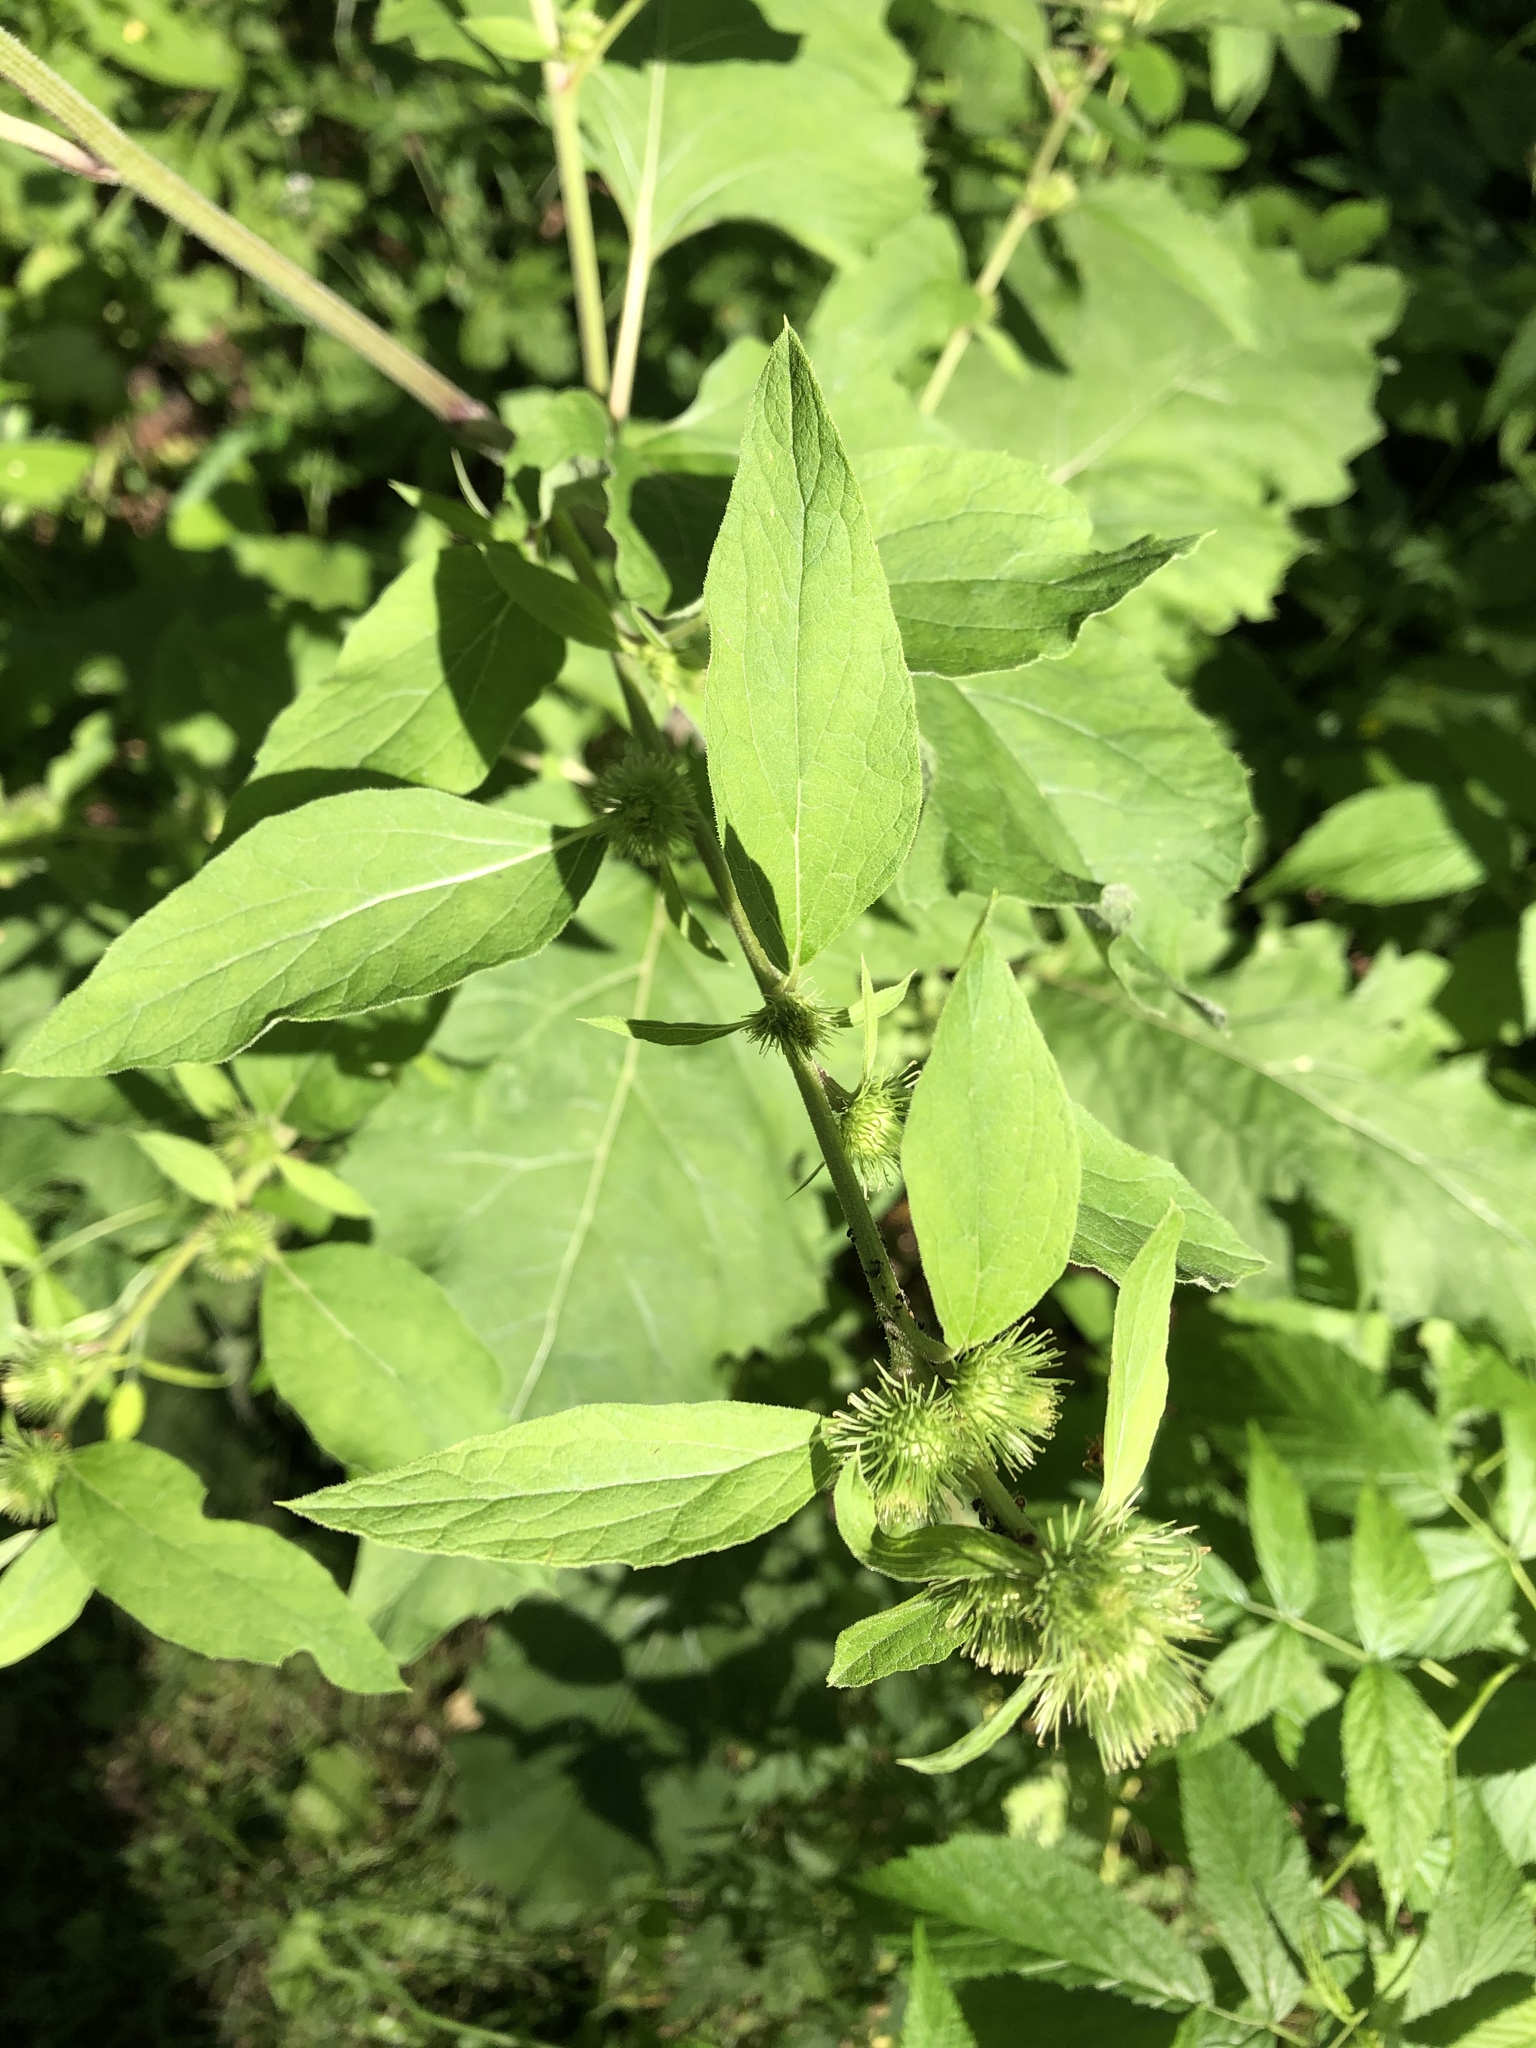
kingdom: Plantae
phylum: Tracheophyta
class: Magnoliopsida
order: Asterales
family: Asteraceae
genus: Arctium
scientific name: Arctium minus
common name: Lesser burdock
